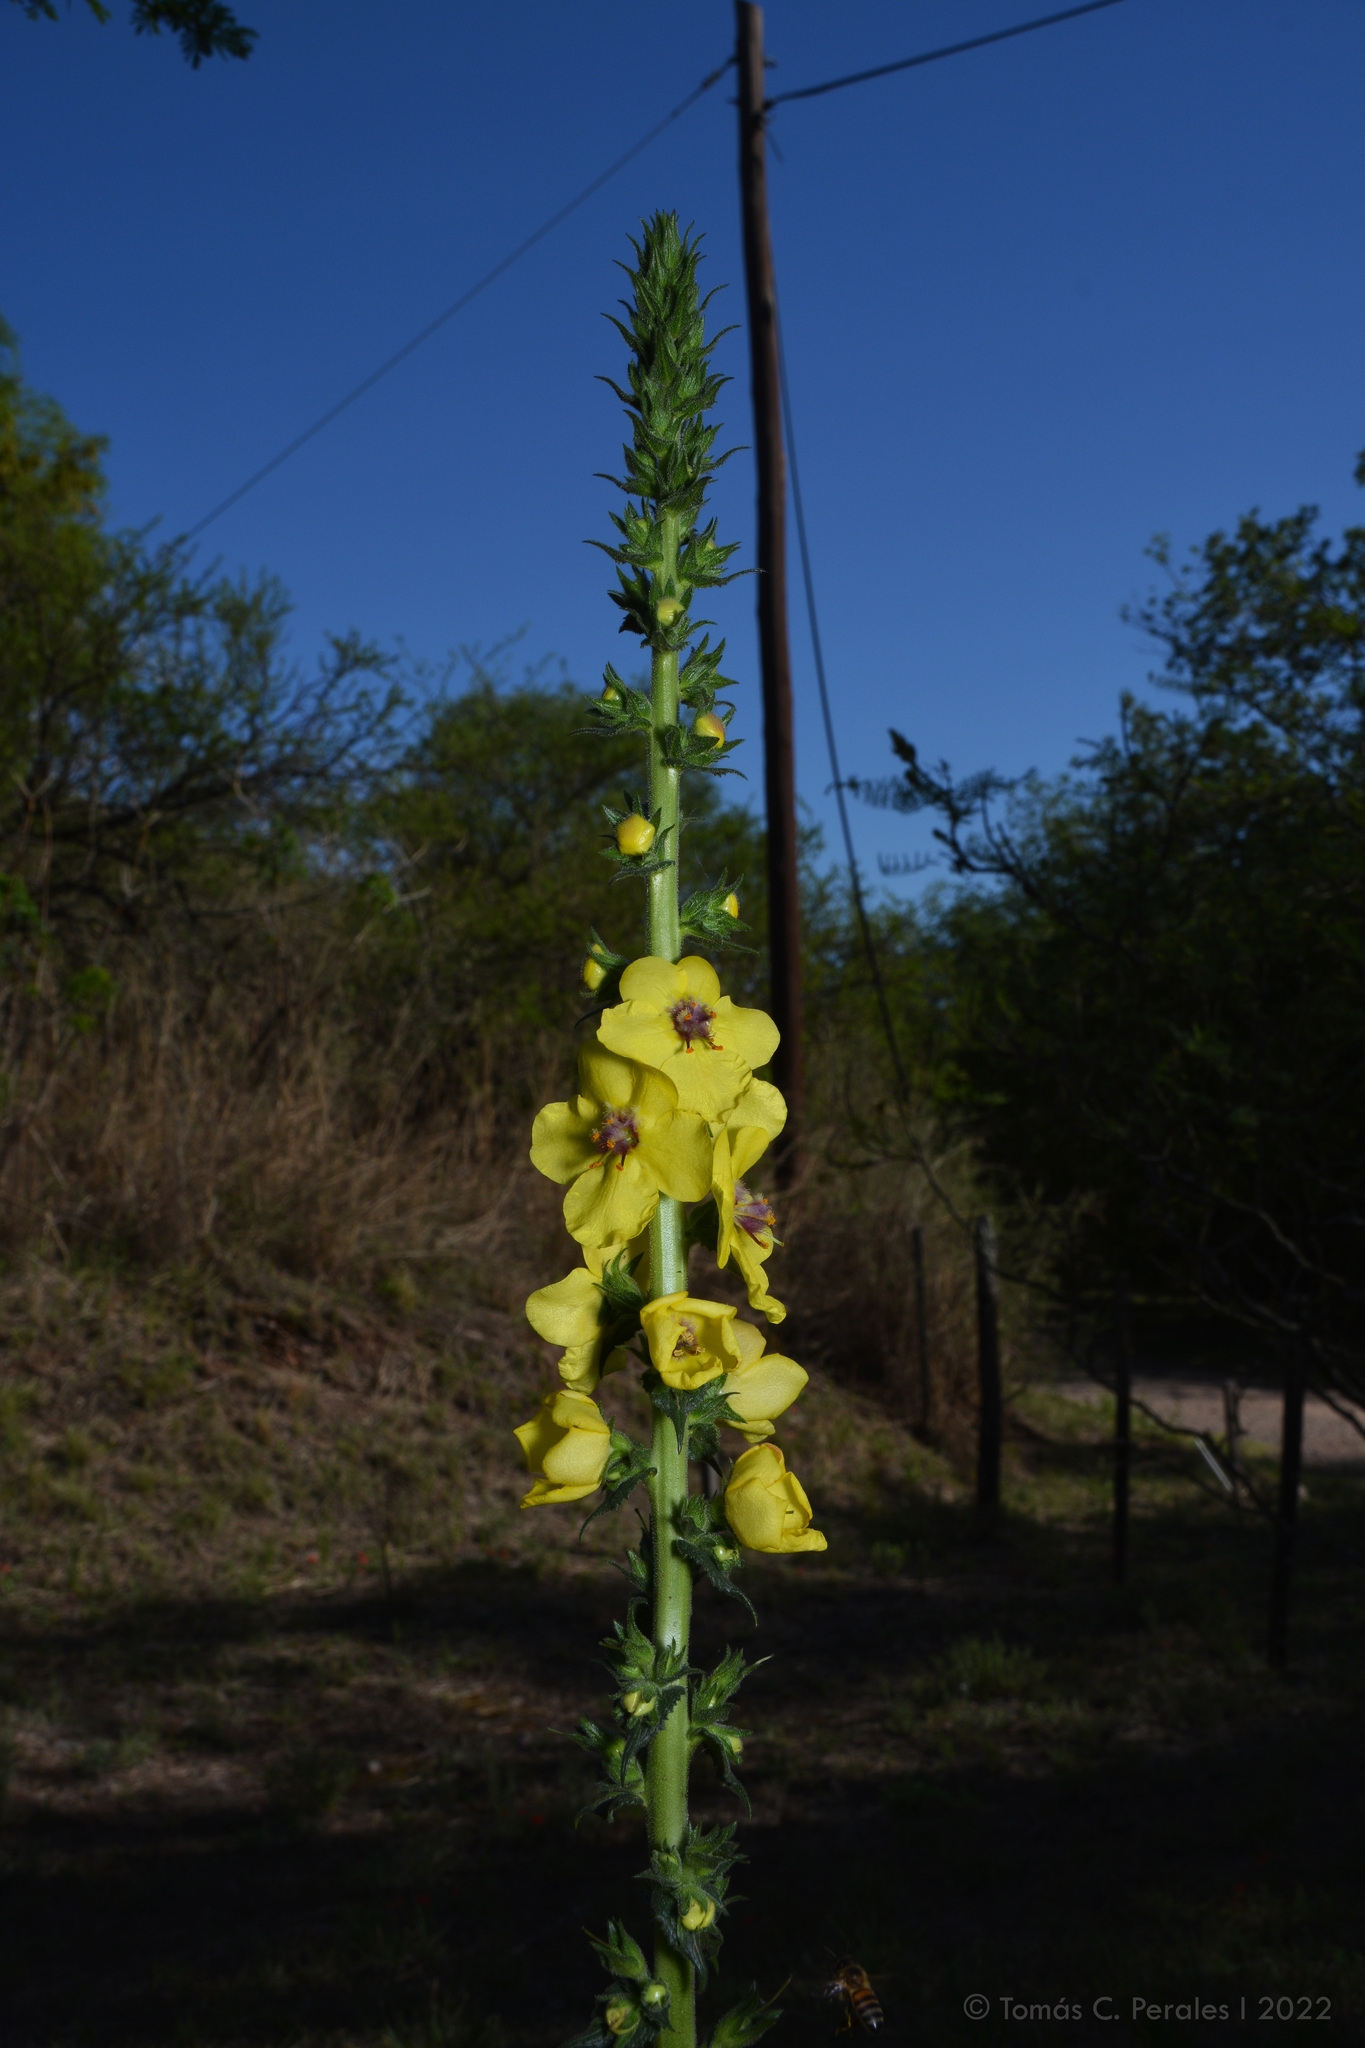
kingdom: Plantae
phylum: Tracheophyta
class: Magnoliopsida
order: Lamiales
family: Scrophulariaceae
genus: Verbascum
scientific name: Verbascum virgatum
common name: Twiggy mullein
